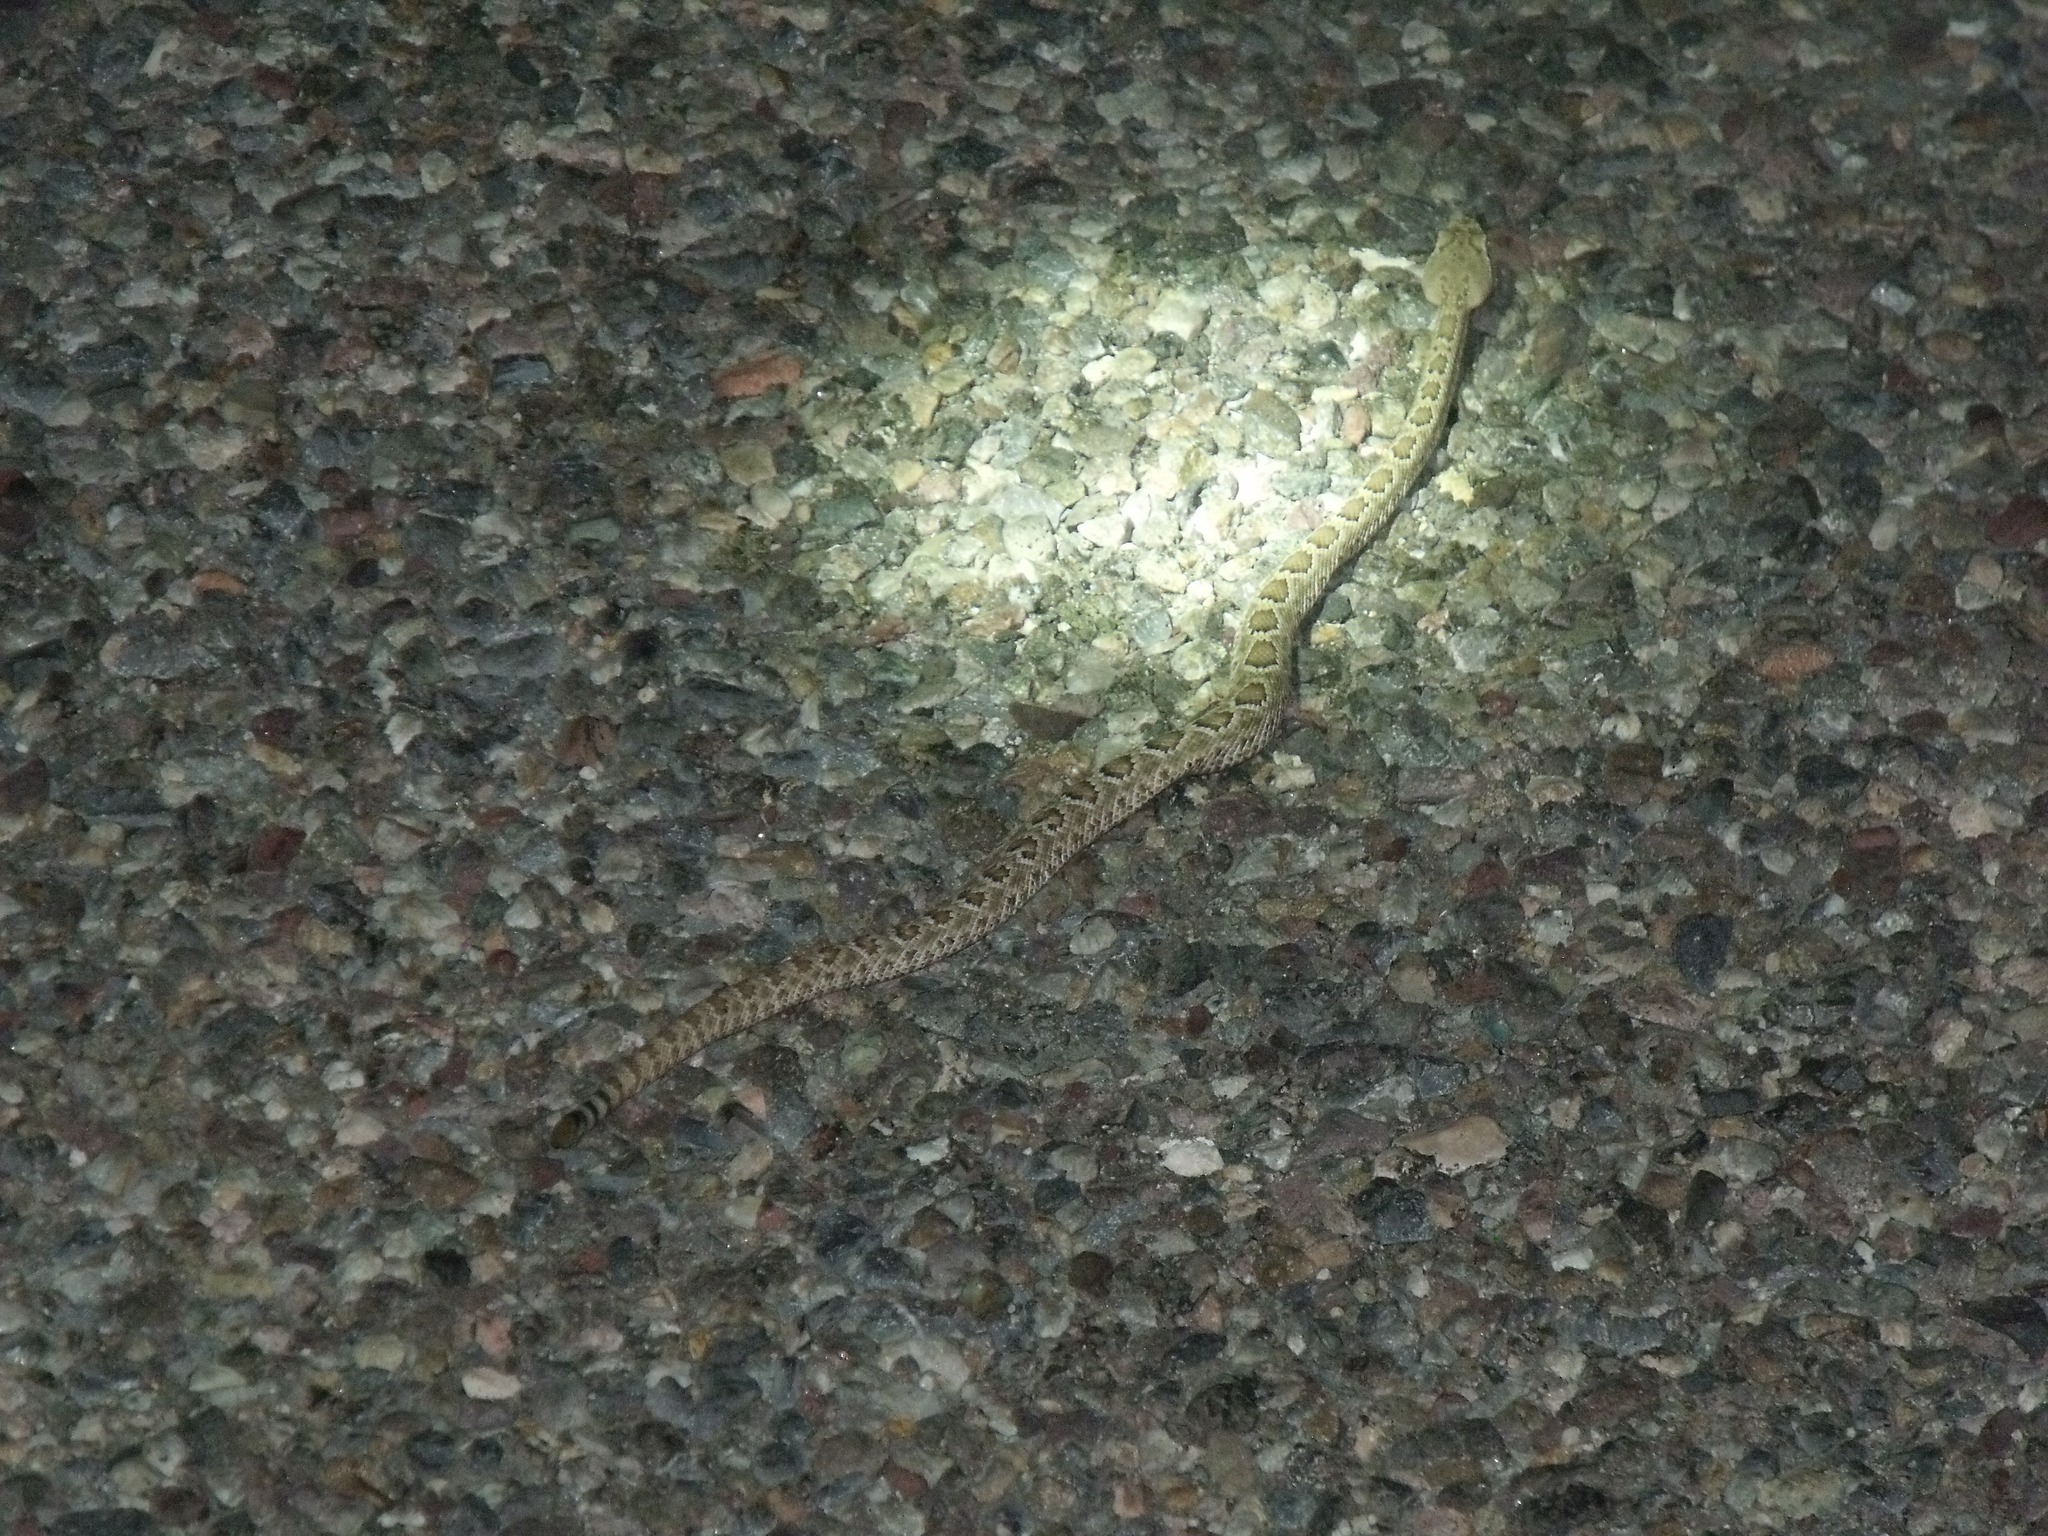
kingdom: Animalia
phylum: Chordata
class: Squamata
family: Viperidae
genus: Crotalus
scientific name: Crotalus scutulatus
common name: Scutulatus
